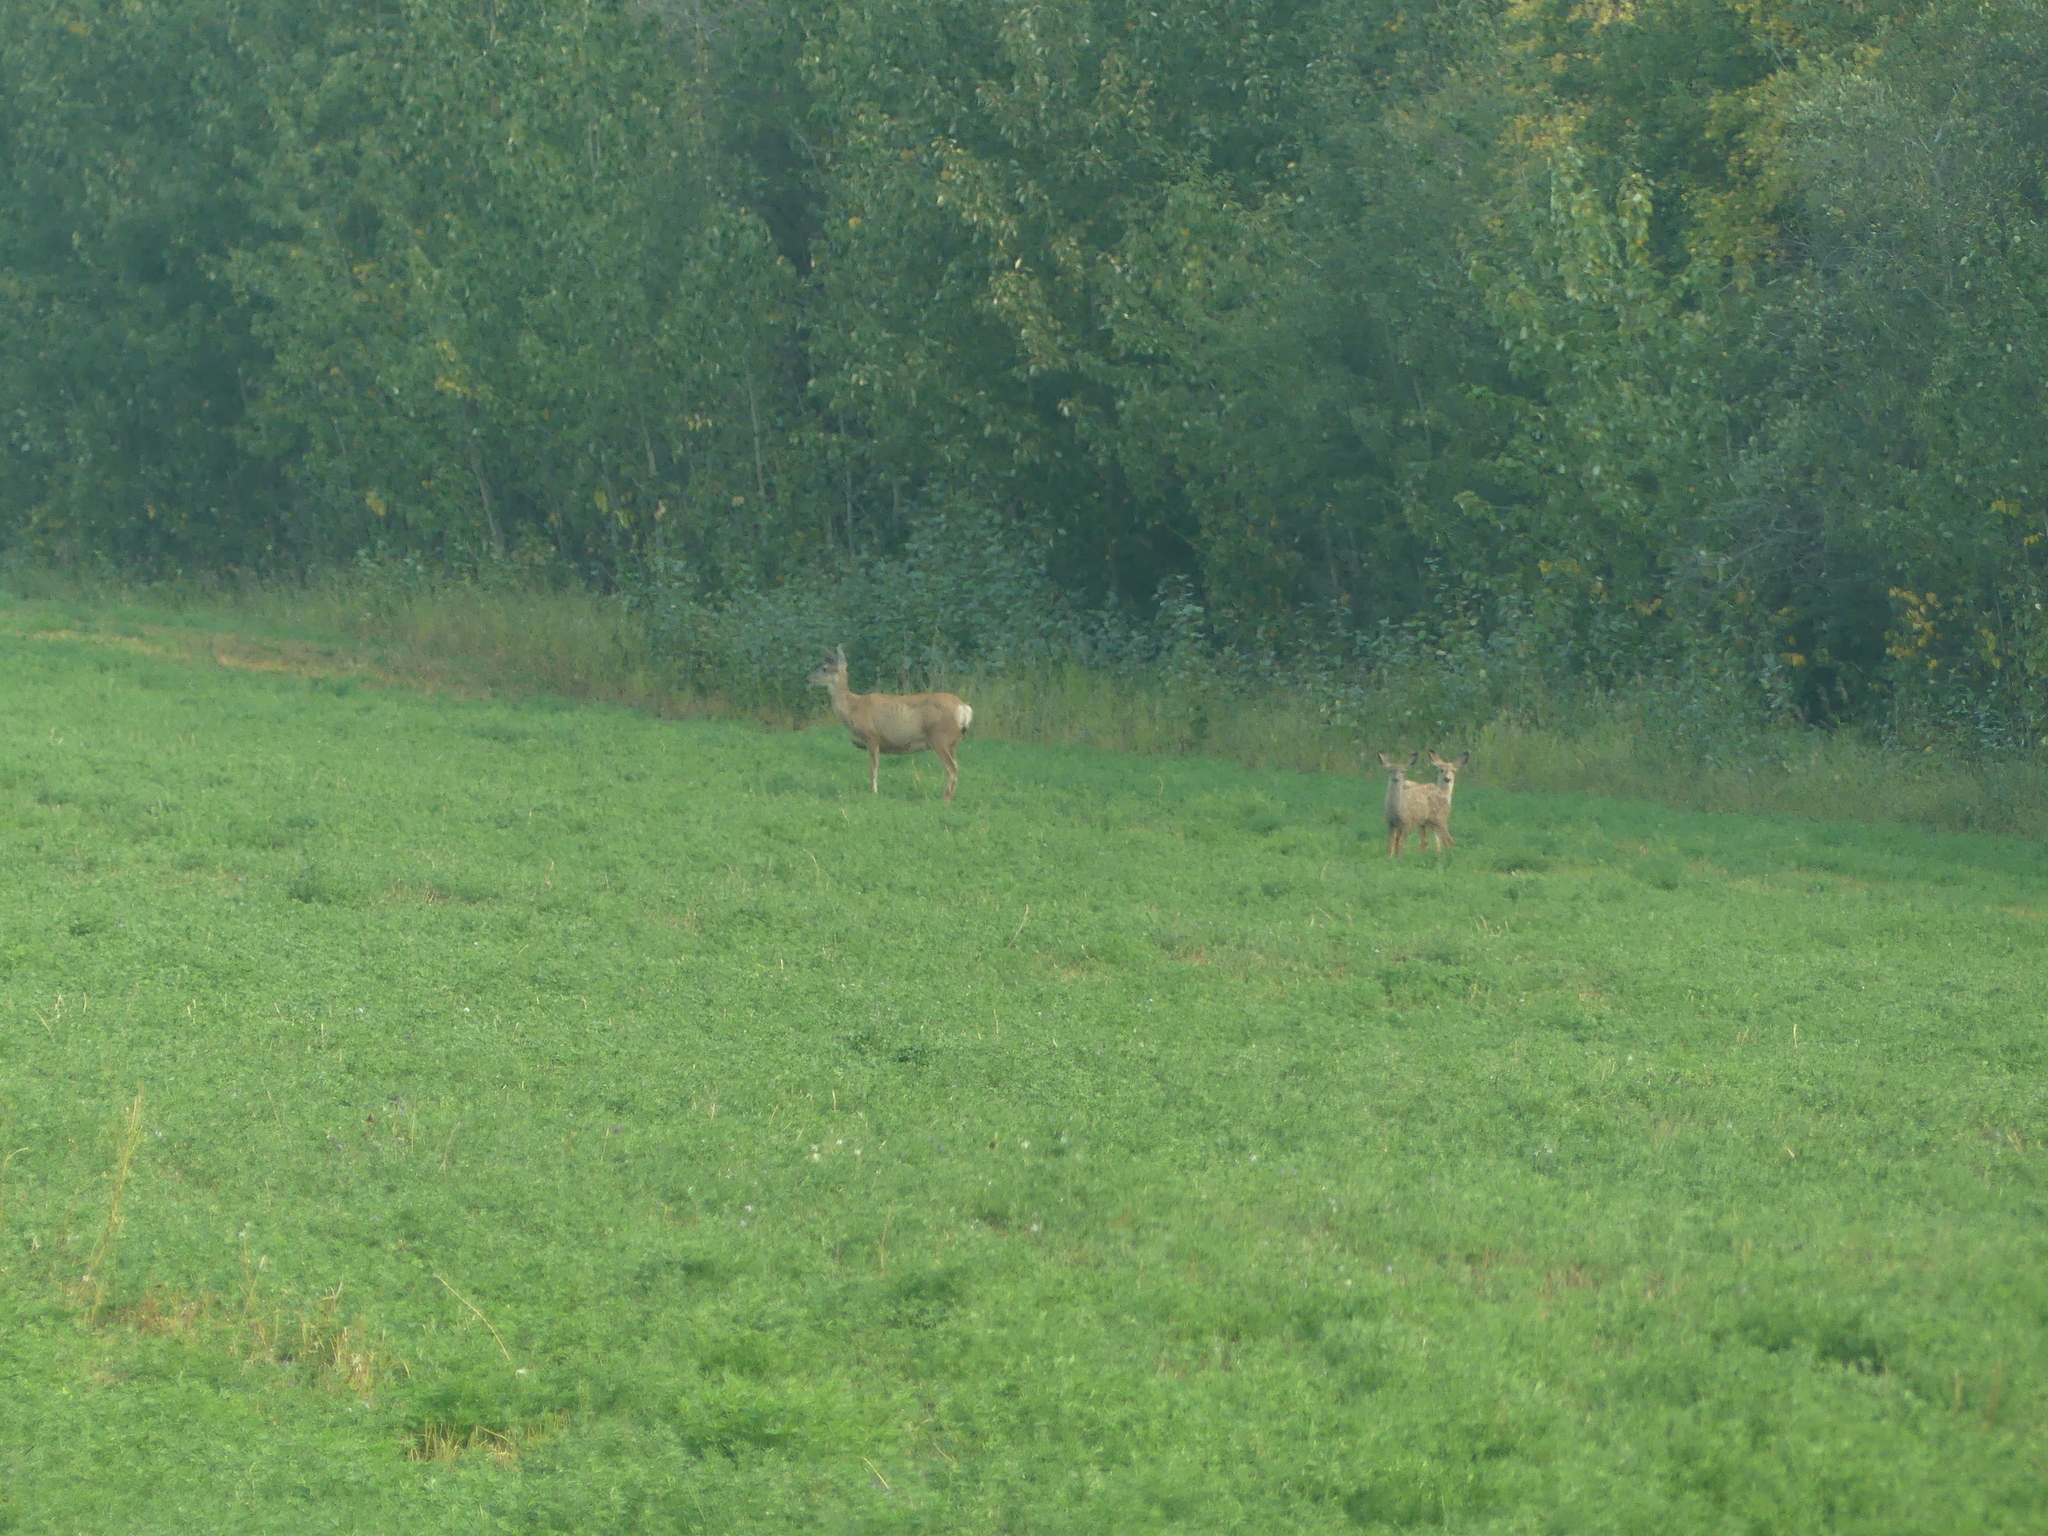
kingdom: Animalia
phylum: Chordata
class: Mammalia
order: Artiodactyla
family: Cervidae
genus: Odocoileus
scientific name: Odocoileus hemionus
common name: Mule deer
